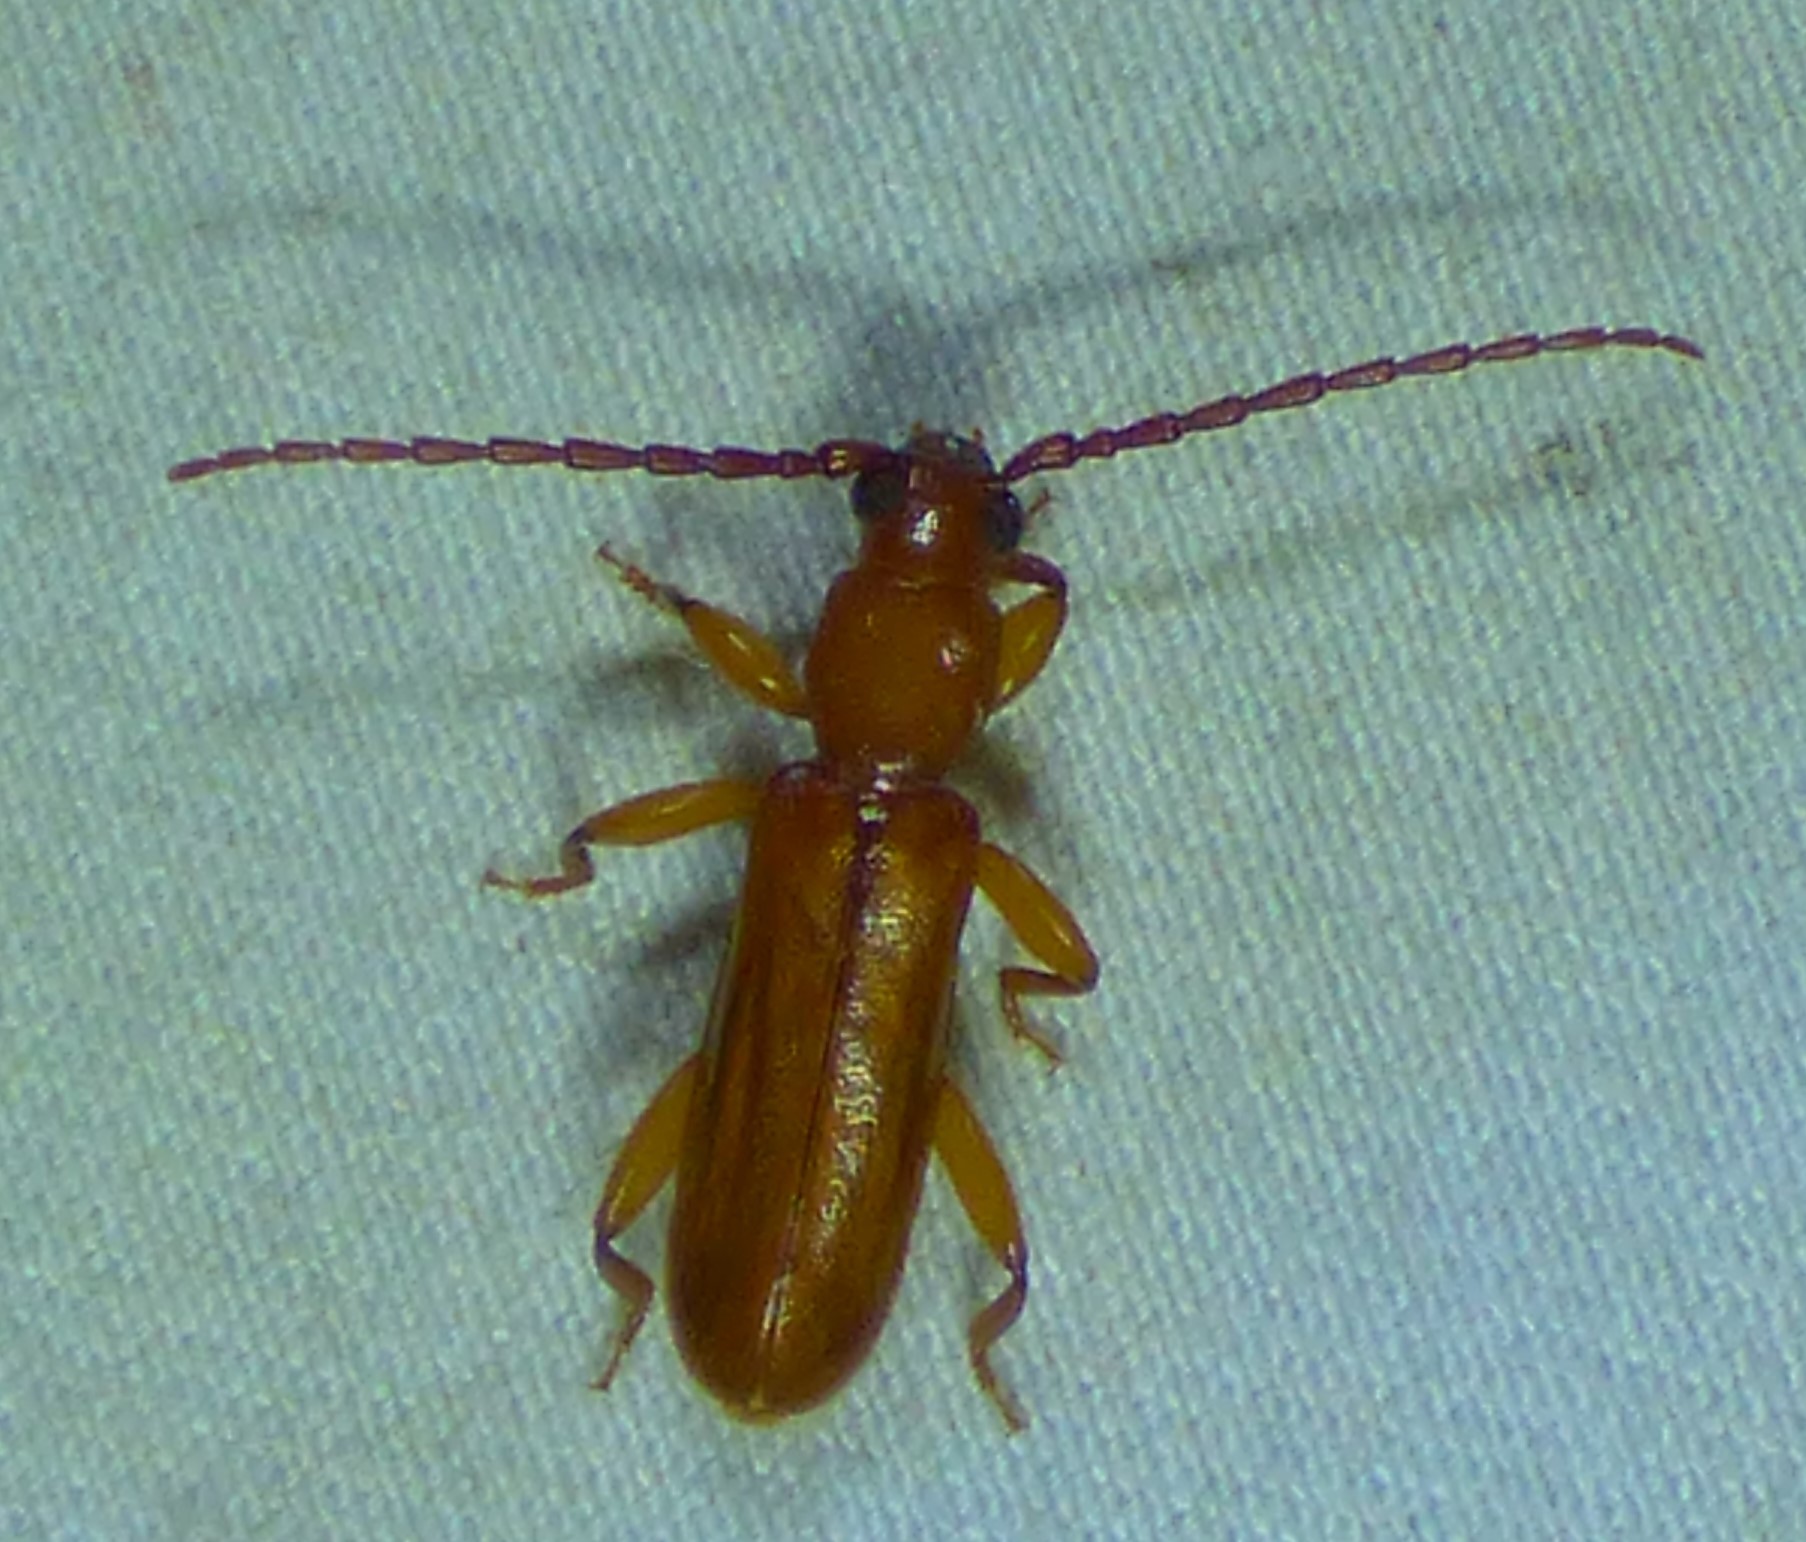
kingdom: Animalia
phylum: Arthropoda
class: Insecta
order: Coleoptera
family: Cerambycidae
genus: Smodicum
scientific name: Smodicum cucujiforme
